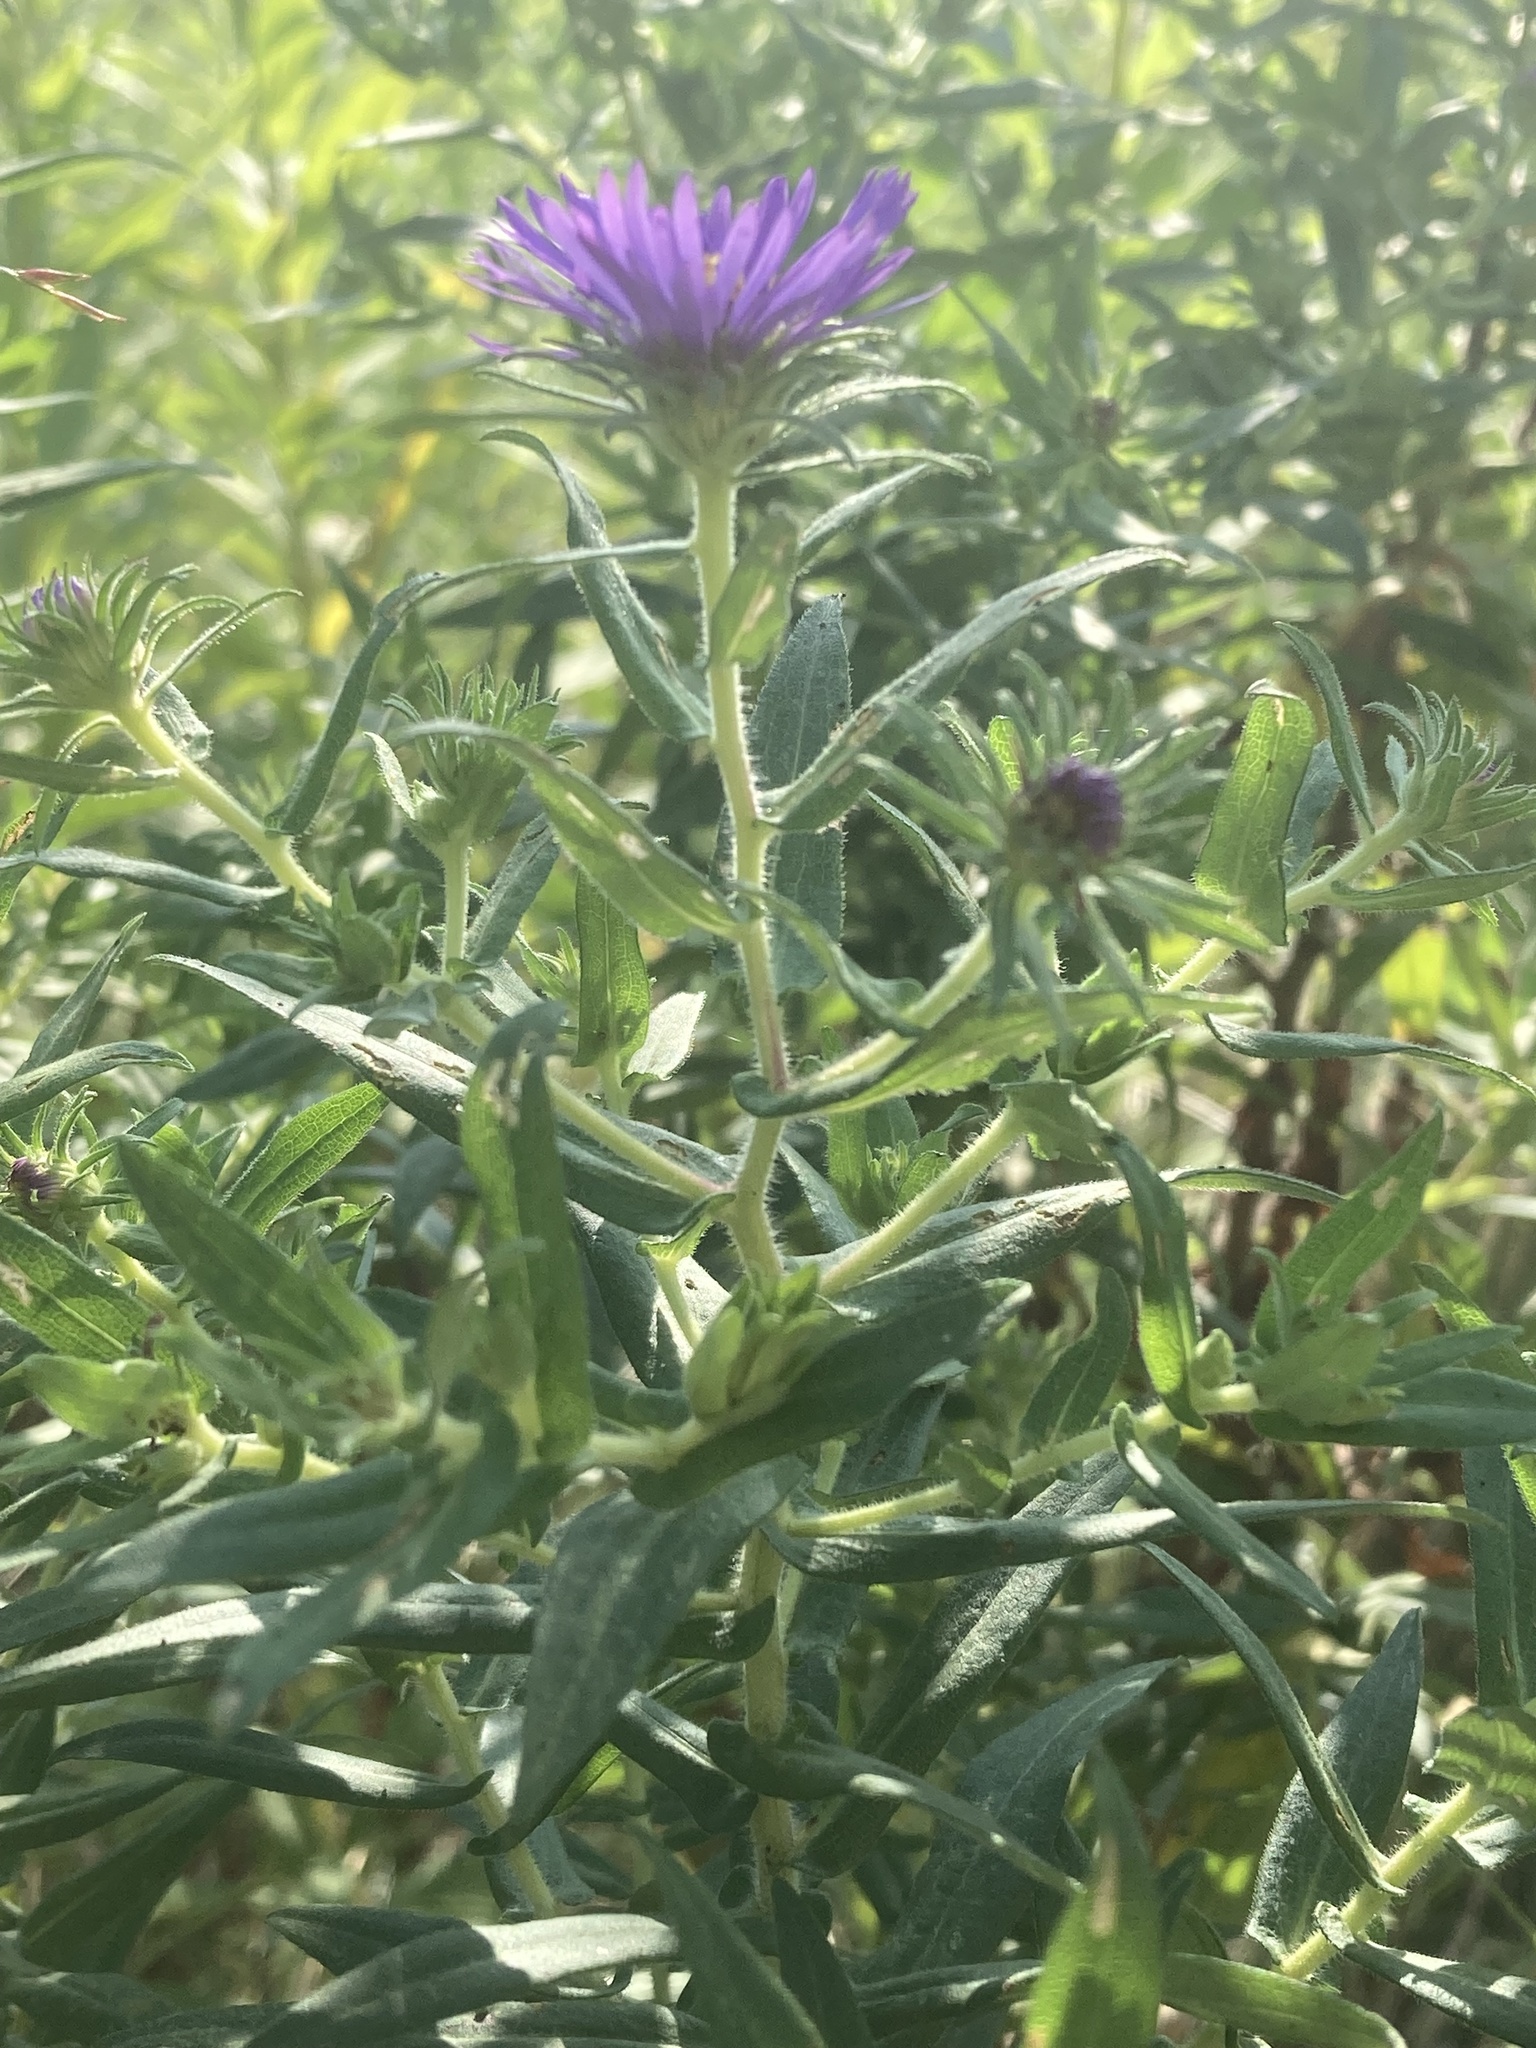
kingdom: Plantae
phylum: Tracheophyta
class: Magnoliopsida
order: Asterales
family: Asteraceae
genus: Symphyotrichum
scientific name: Symphyotrichum novae-angliae
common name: Michaelmas daisy
